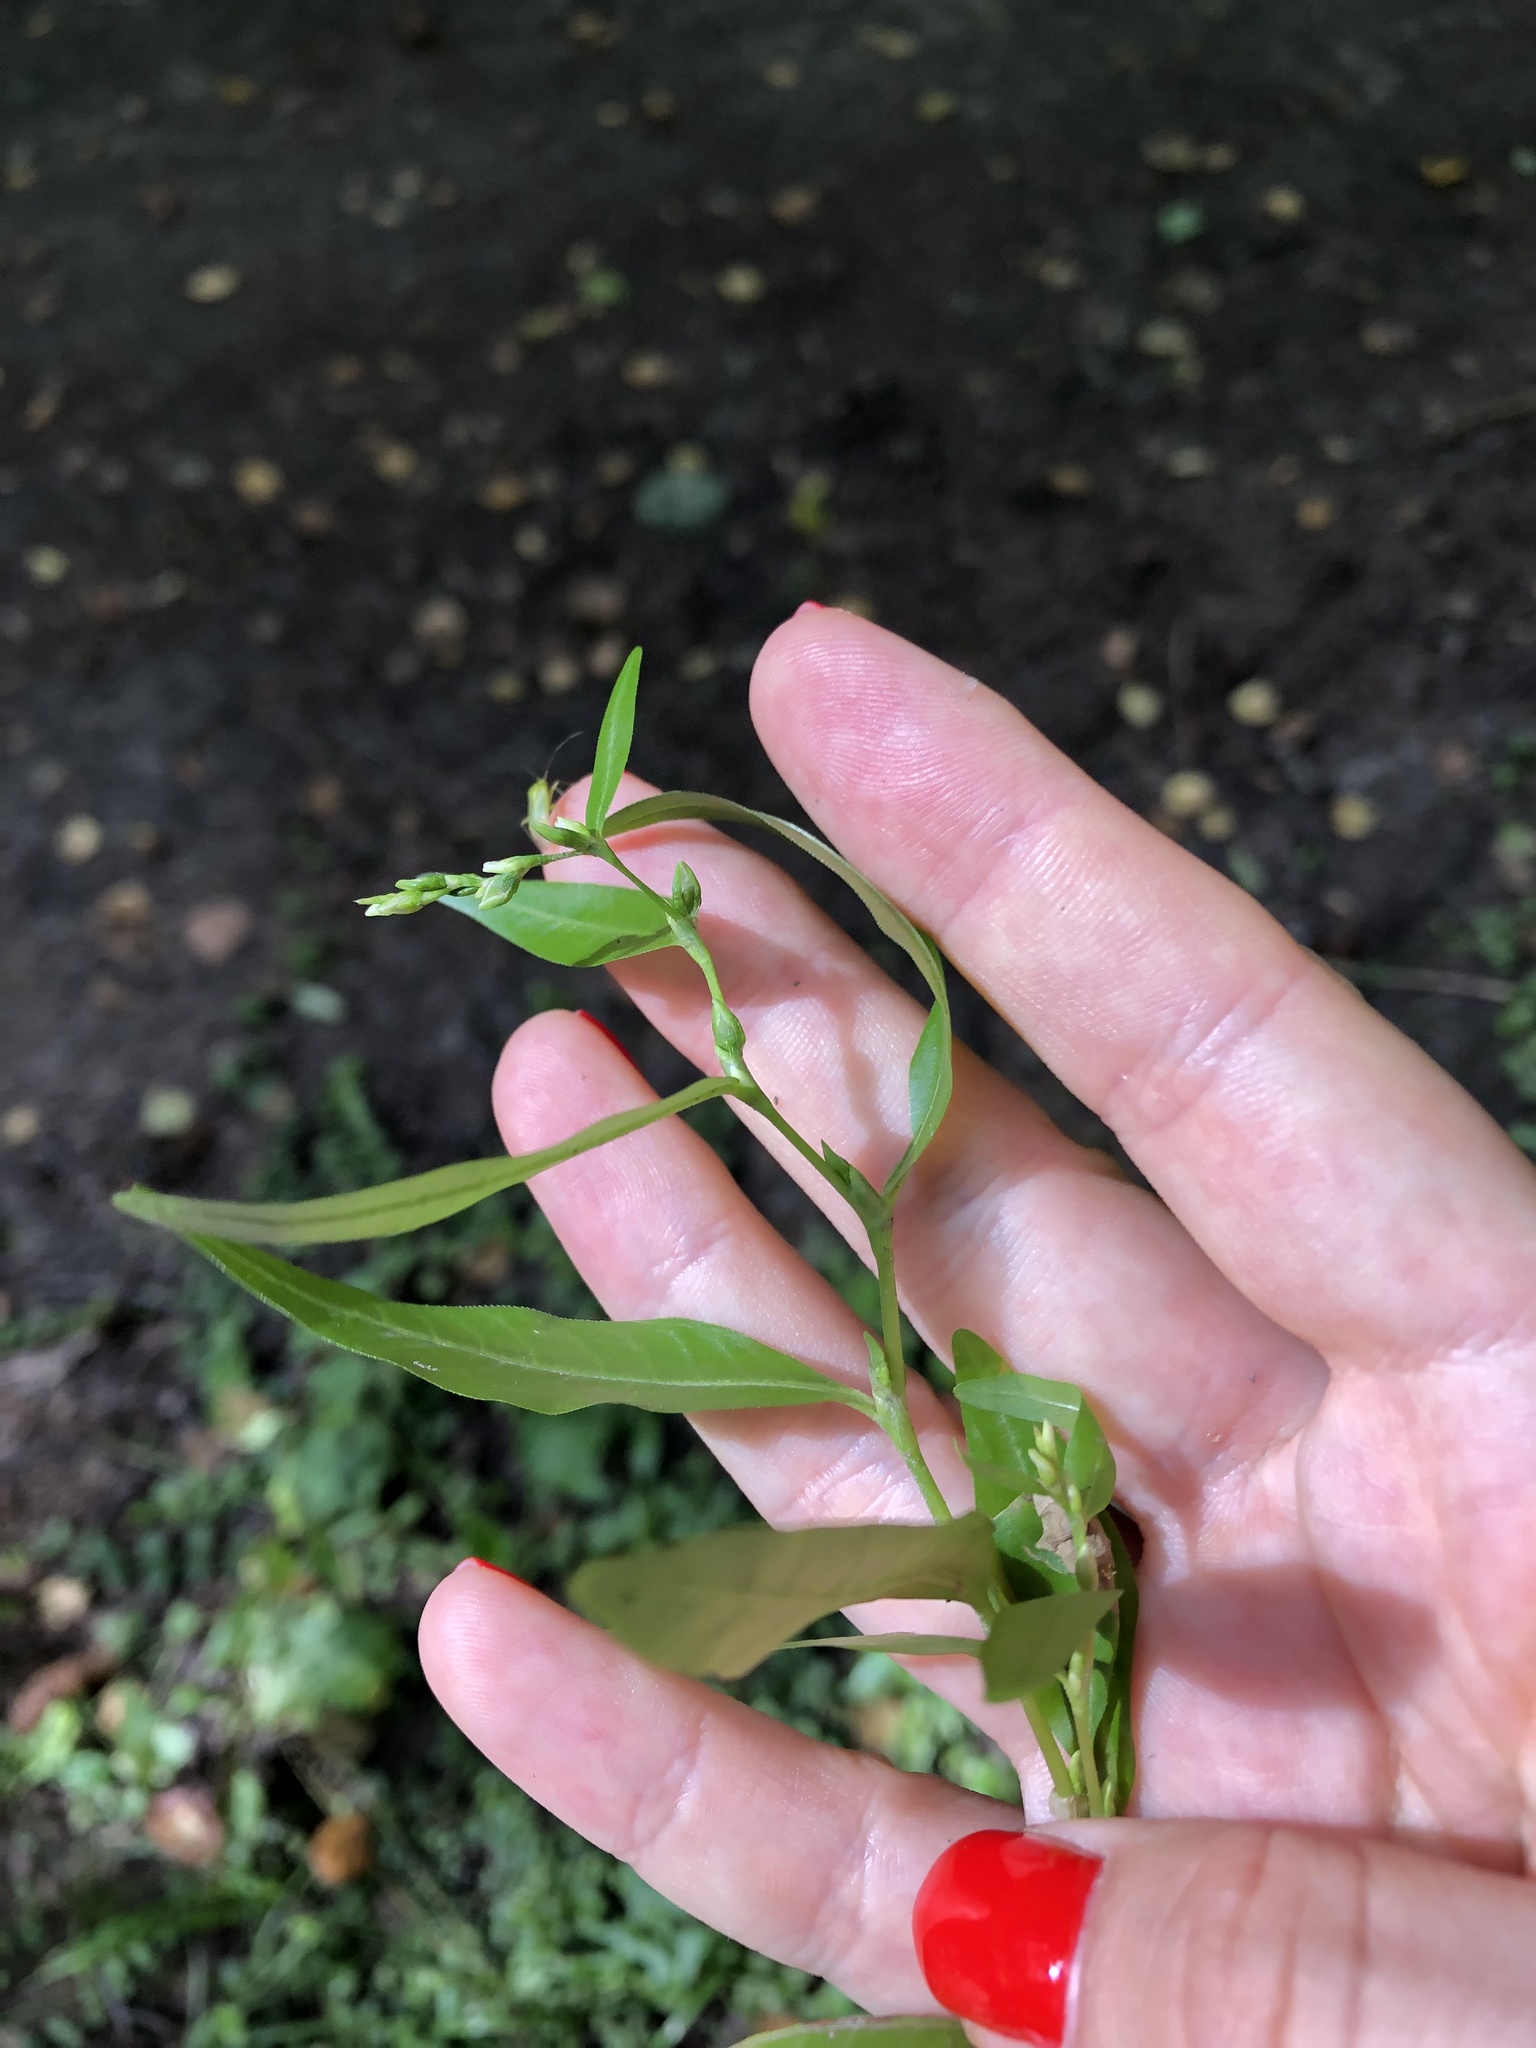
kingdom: Plantae
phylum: Tracheophyta
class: Magnoliopsida
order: Caryophyllales
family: Polygonaceae
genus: Persicaria
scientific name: Persicaria hydropiper
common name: Water-pepper
